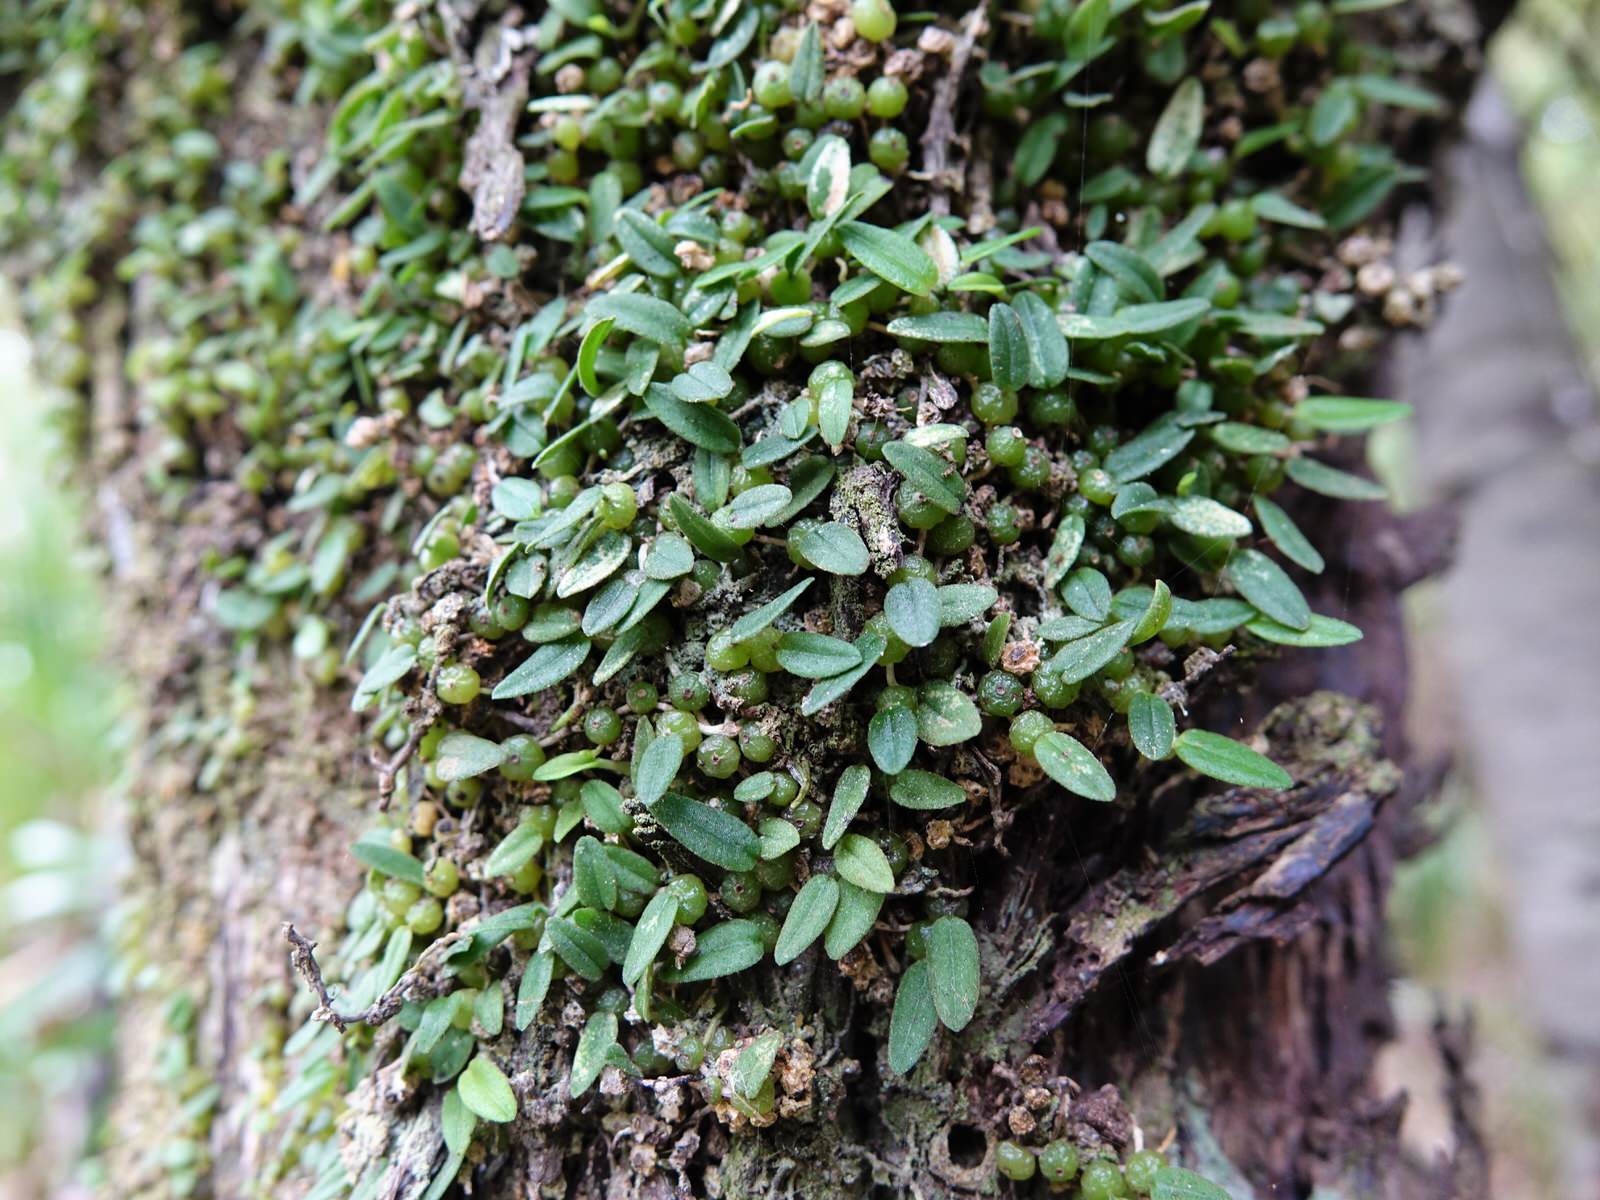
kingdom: Plantae
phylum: Tracheophyta
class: Liliopsida
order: Asparagales
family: Orchidaceae
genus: Bulbophyllum
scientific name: Bulbophyllum pygmaeum
